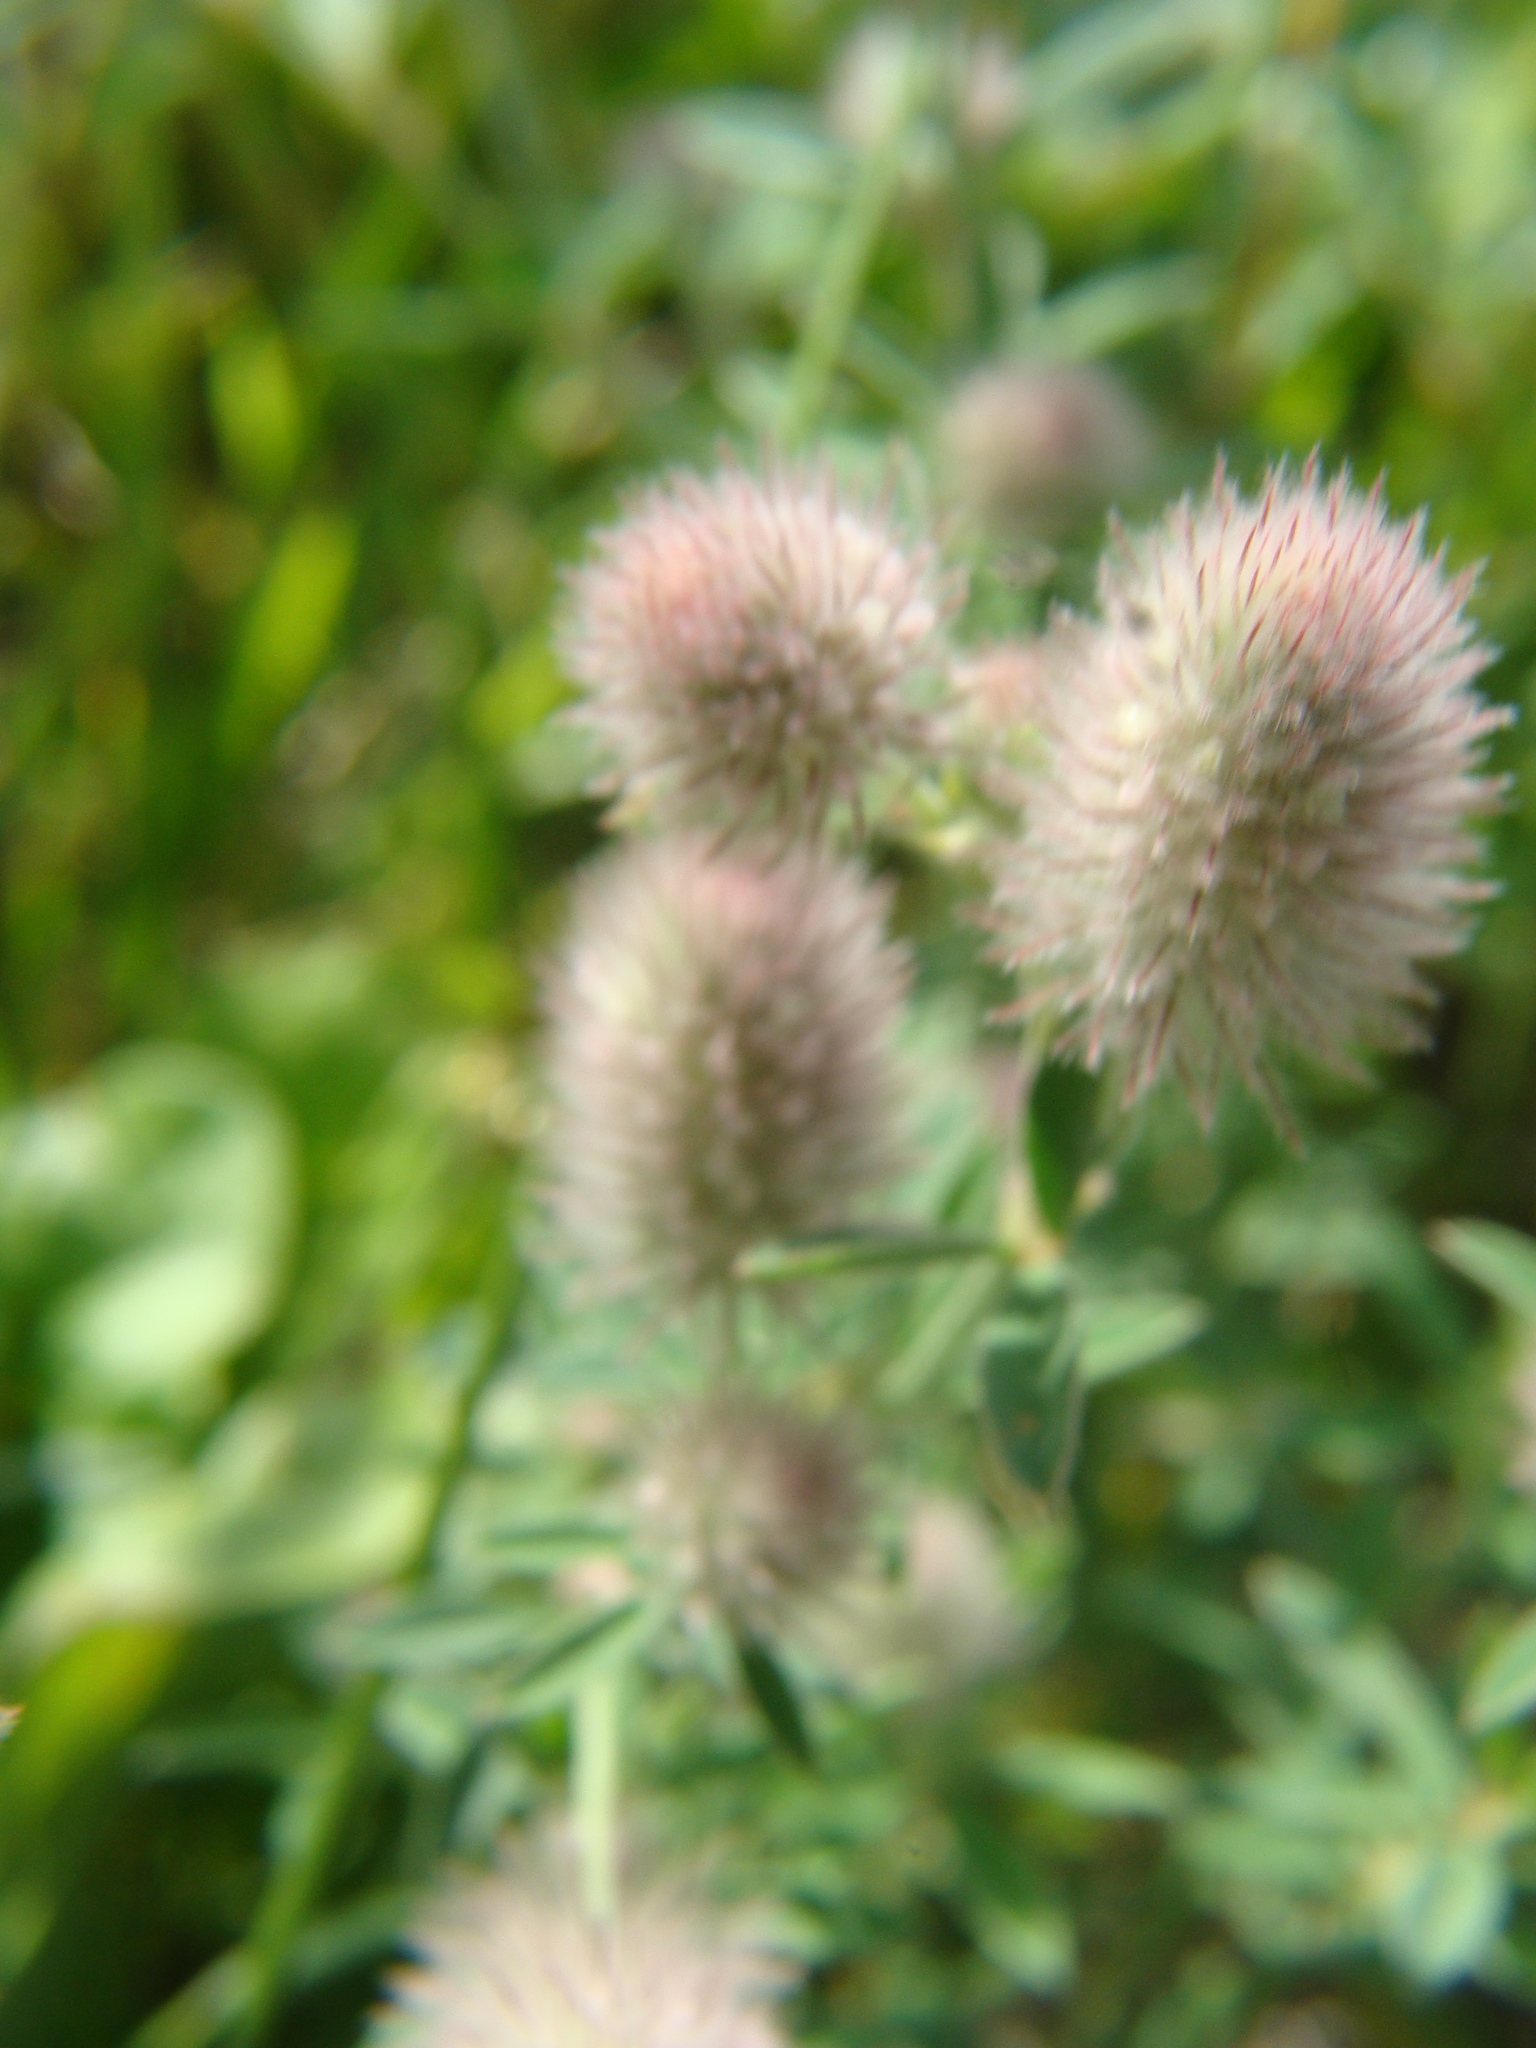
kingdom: Plantae
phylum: Tracheophyta
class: Magnoliopsida
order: Fabales
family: Fabaceae
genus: Trifolium
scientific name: Trifolium arvense
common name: Hare's-foot clover
